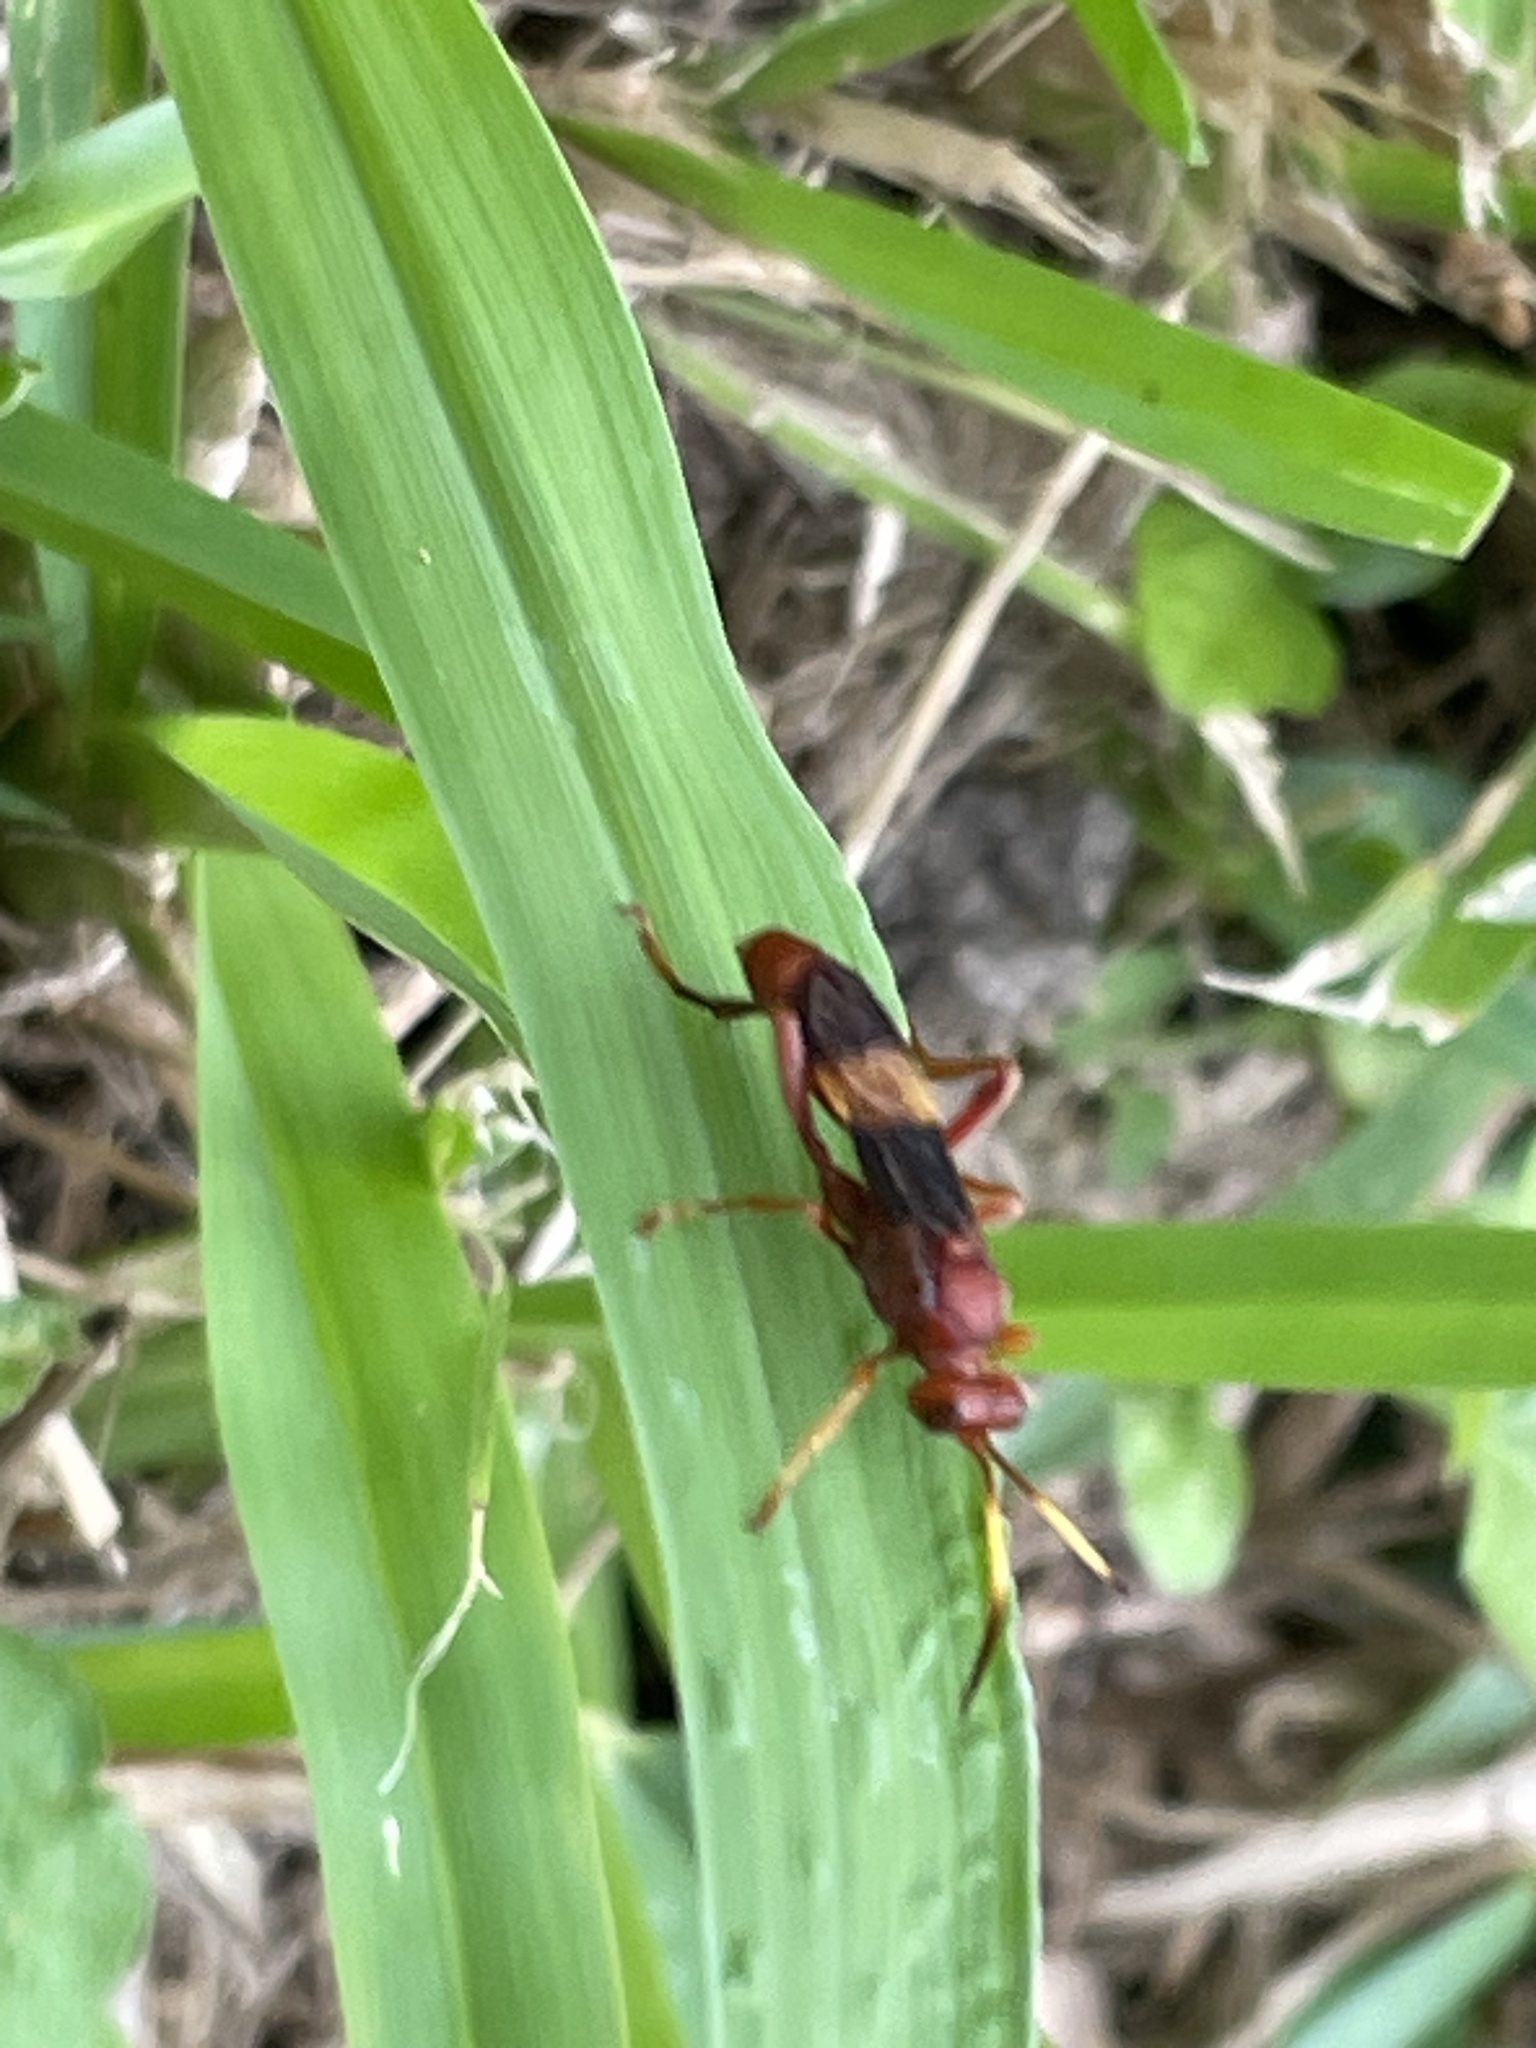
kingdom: Animalia
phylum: Arthropoda
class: Insecta
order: Hymenoptera
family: Ichneumonidae
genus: Trogomorpha
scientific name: Trogomorpha arrogans
